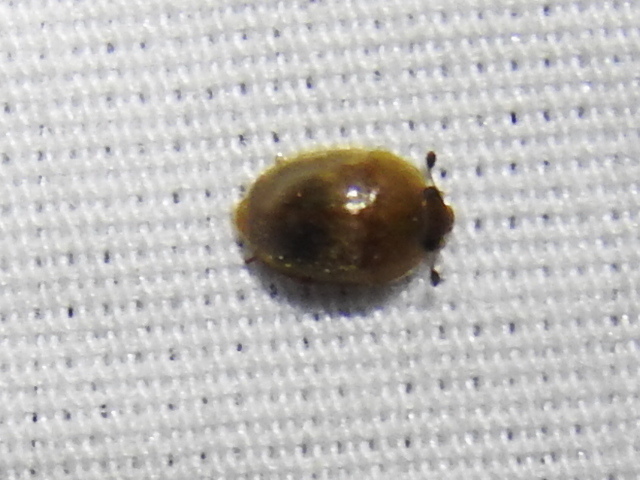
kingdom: Animalia
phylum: Arthropoda
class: Insecta
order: Coleoptera
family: Nitidulidae
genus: Amphicrossus
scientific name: Amphicrossus ciliatus
